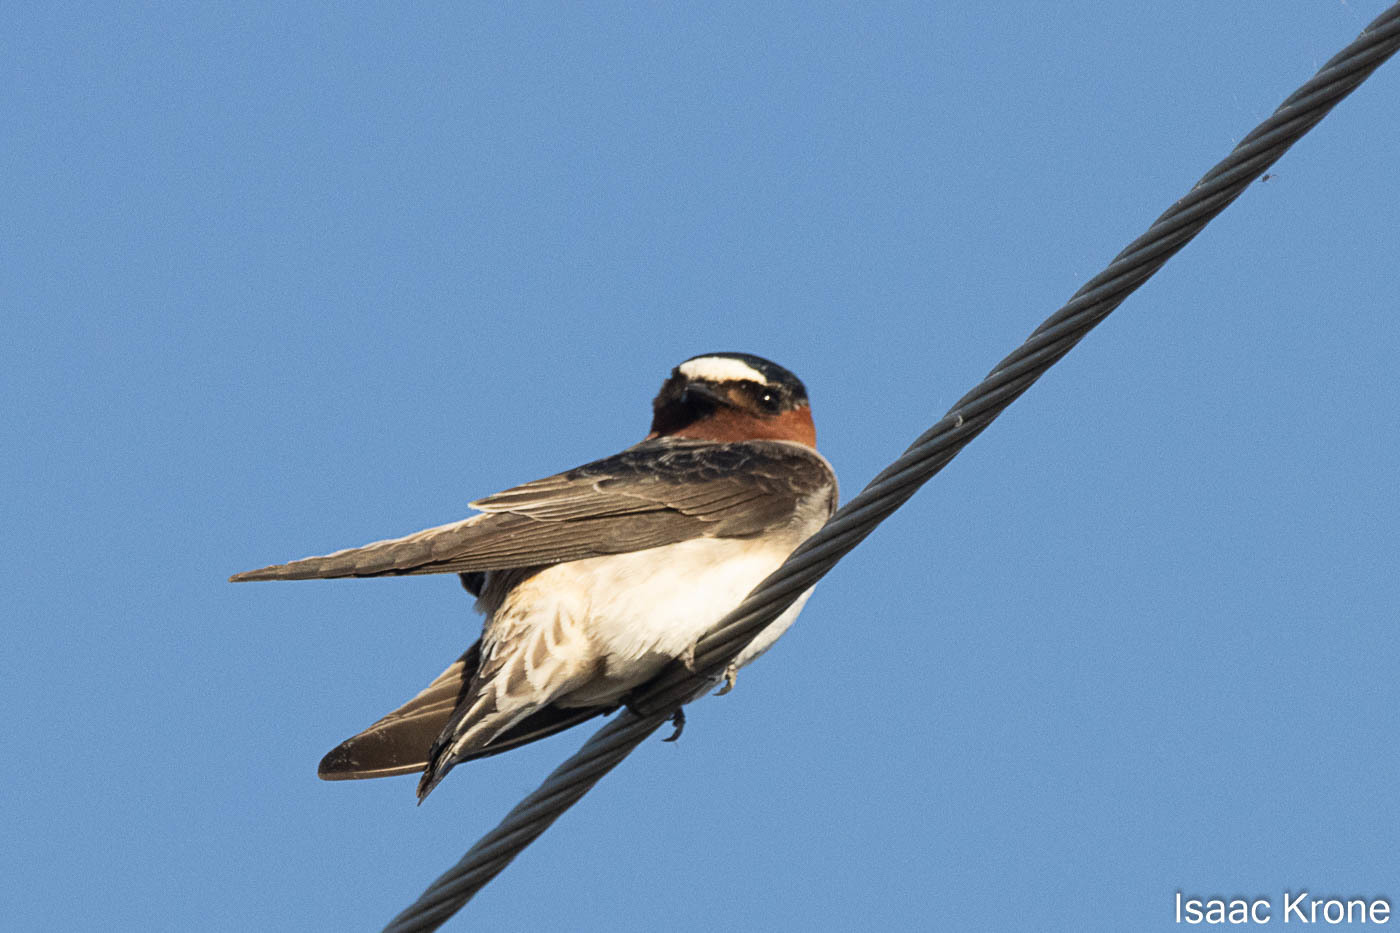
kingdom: Animalia
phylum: Chordata
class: Aves
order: Passeriformes
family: Hirundinidae
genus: Petrochelidon
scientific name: Petrochelidon pyrrhonota
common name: American cliff swallow
